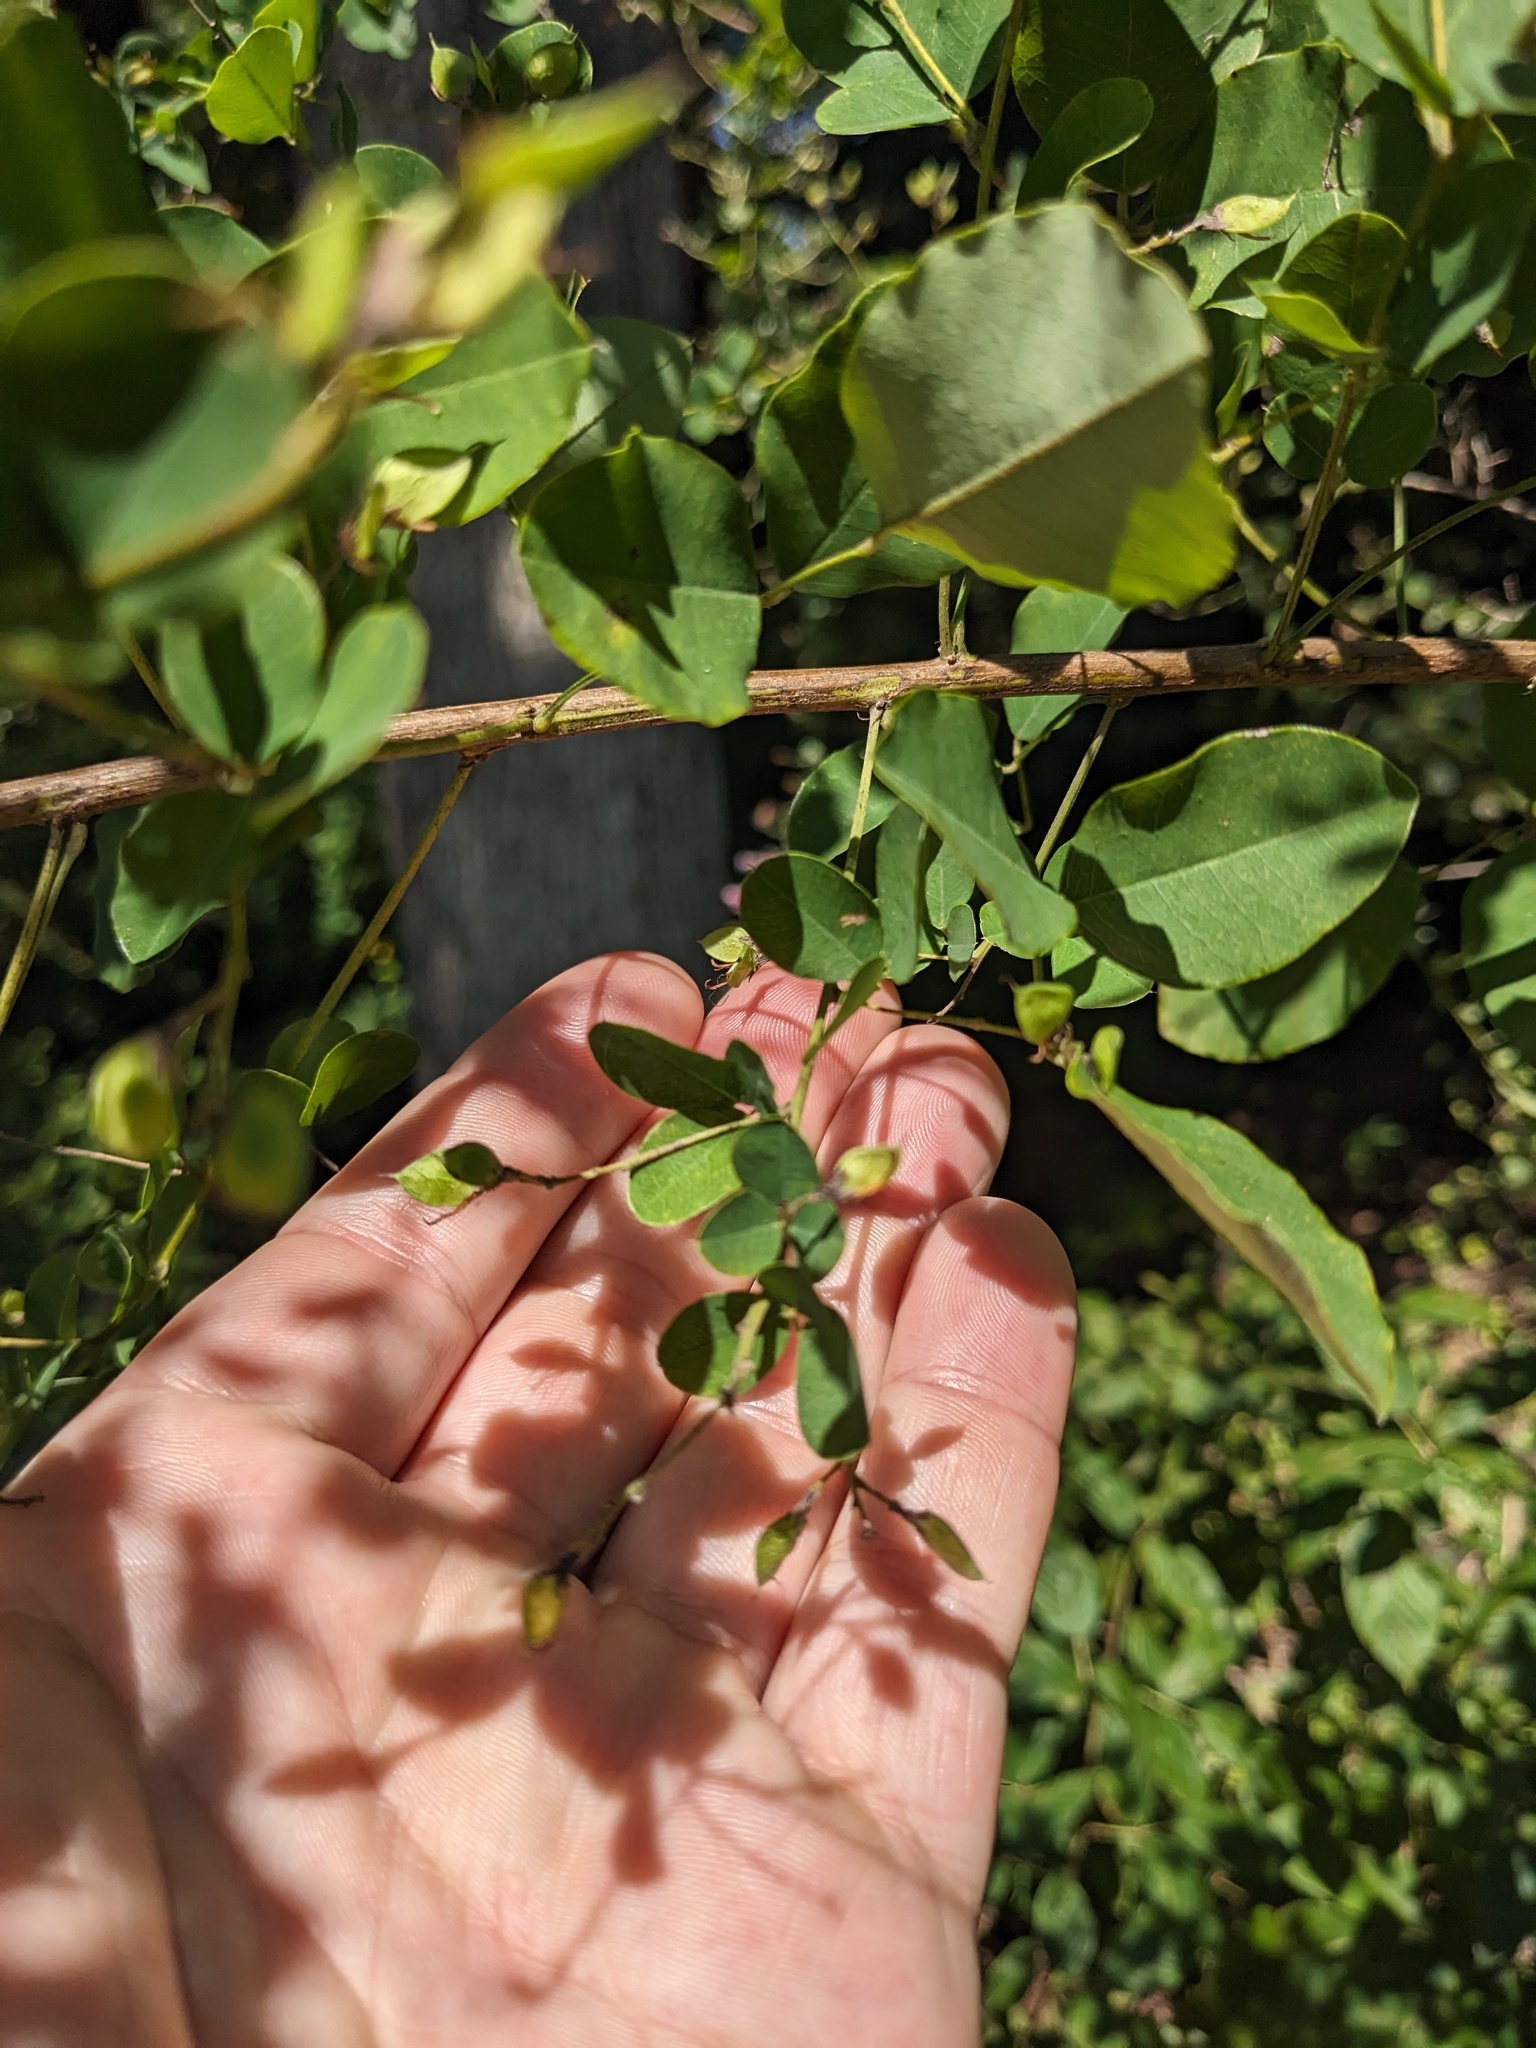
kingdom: Plantae
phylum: Tracheophyta
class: Magnoliopsida
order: Fabales
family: Fabaceae
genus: Lespedeza
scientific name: Lespedeza bicolor
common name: Shrub lespedeza
